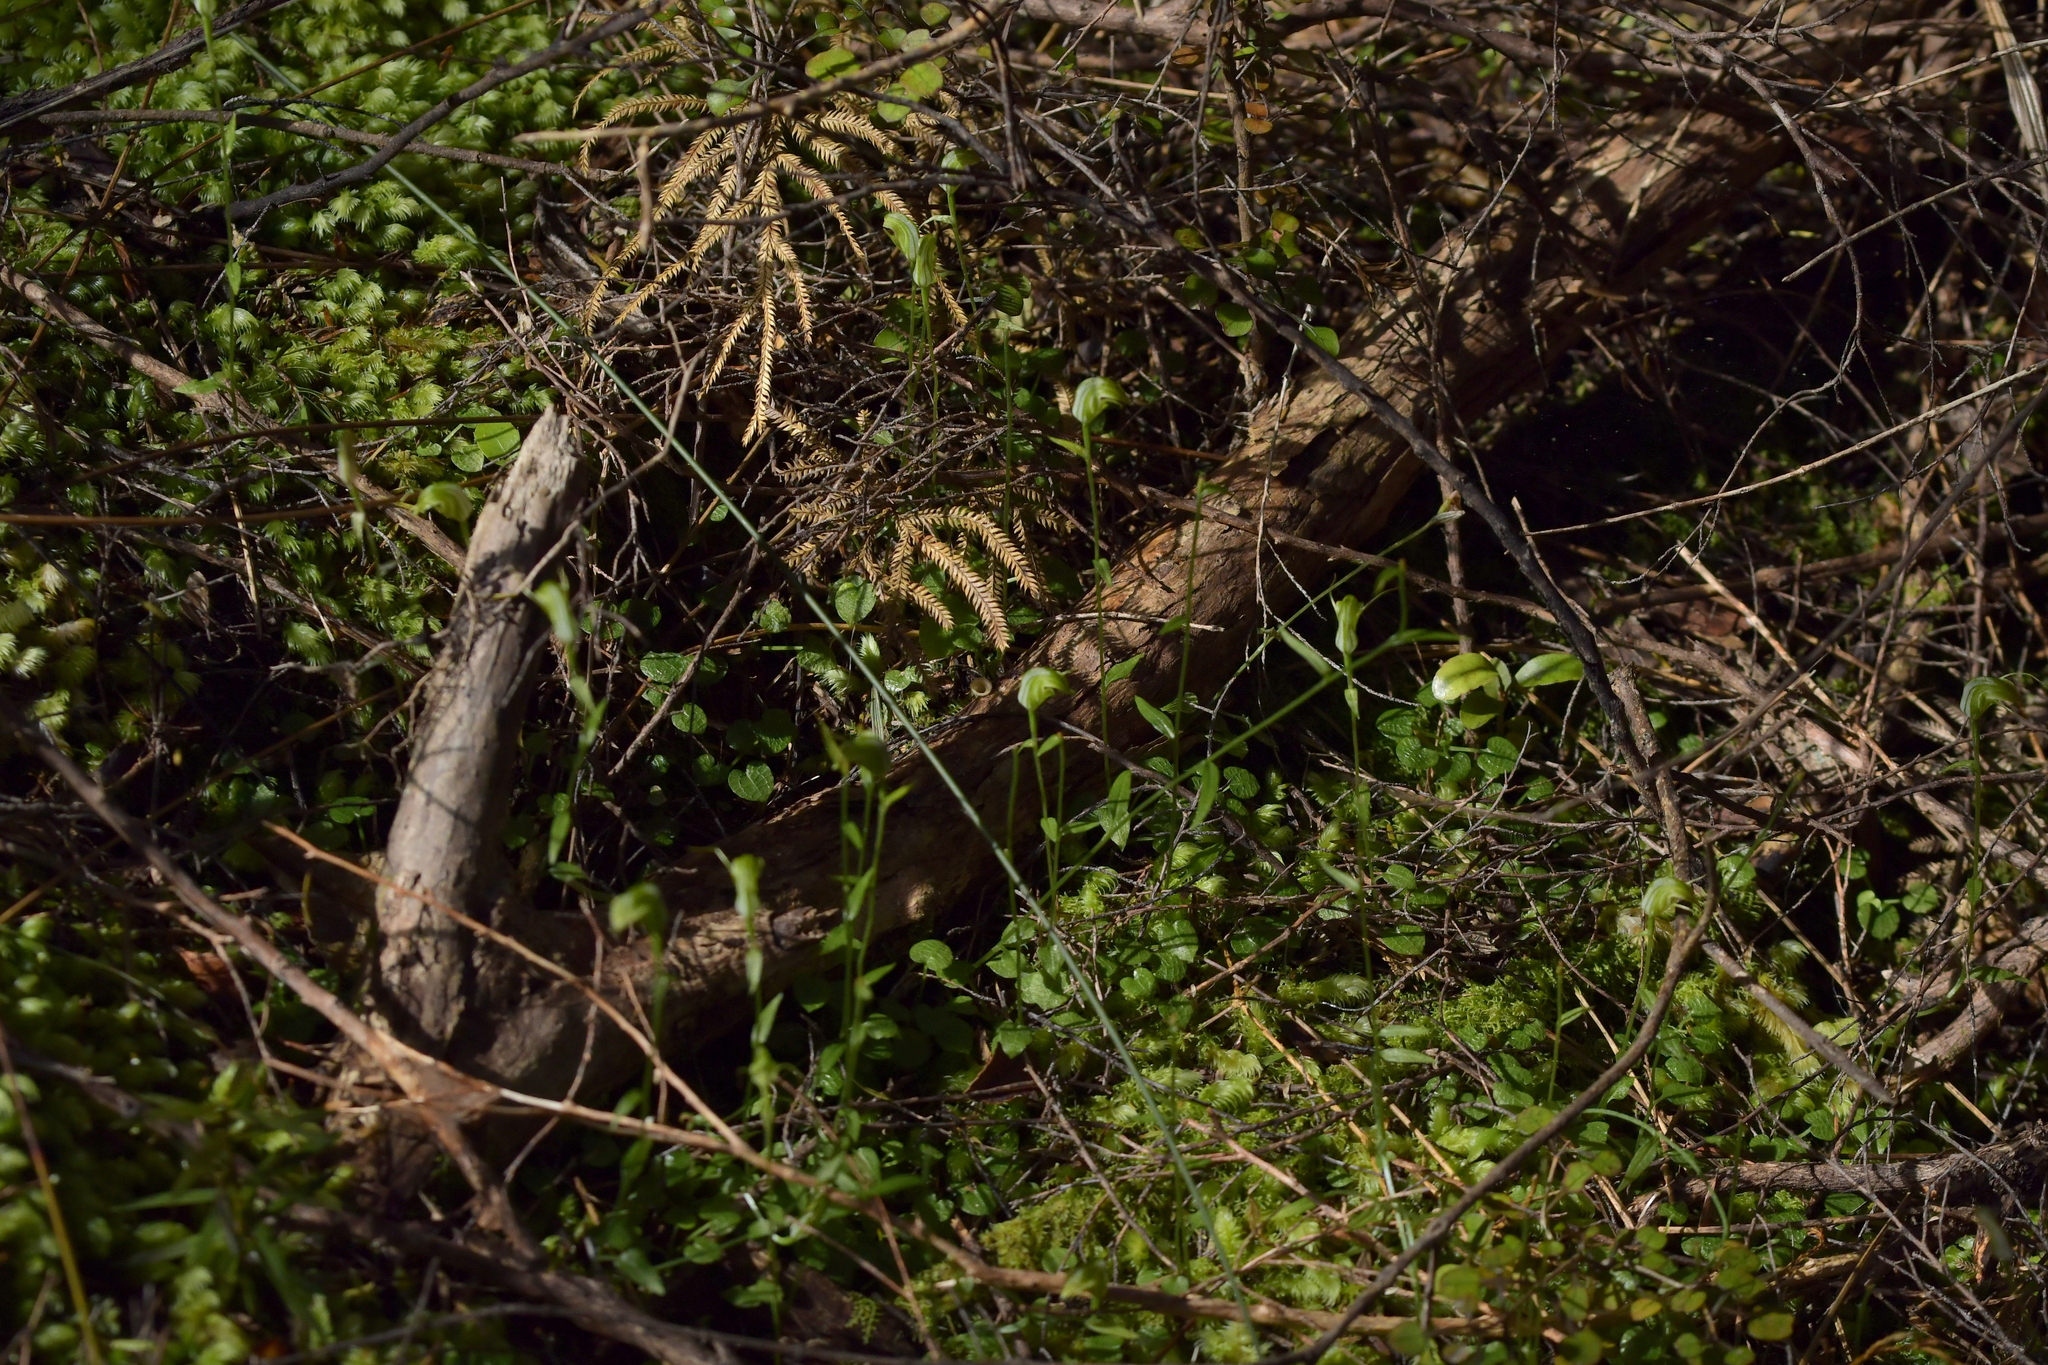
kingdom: Plantae
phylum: Tracheophyta
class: Liliopsida
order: Asparagales
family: Orchidaceae
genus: Pterostylis
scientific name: Pterostylis trullifolia
